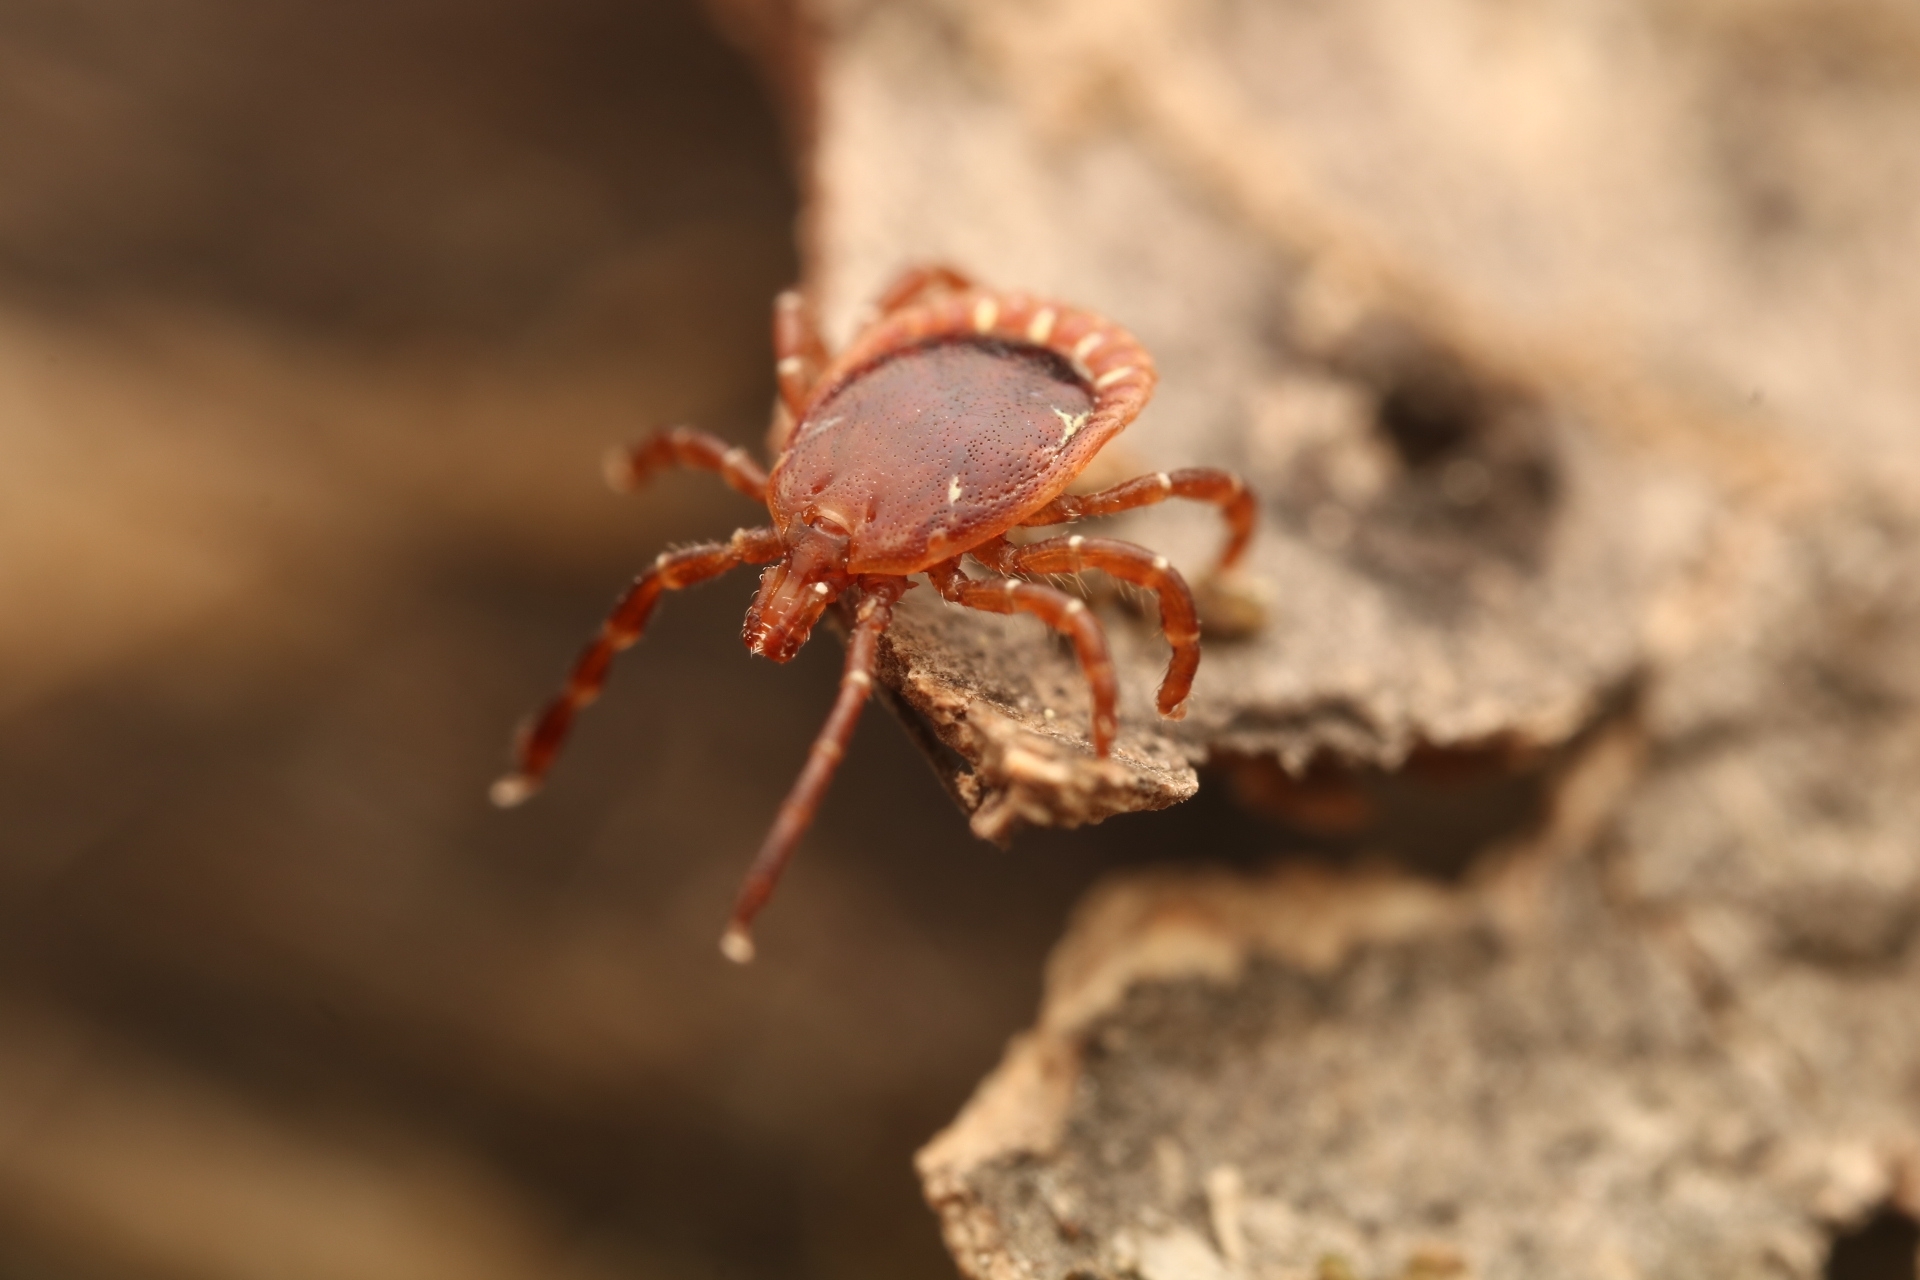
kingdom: Animalia
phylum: Arthropoda
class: Arachnida
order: Ixodida
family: Ixodidae
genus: Amblyomma
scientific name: Amblyomma americanum
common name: Lone star tick
